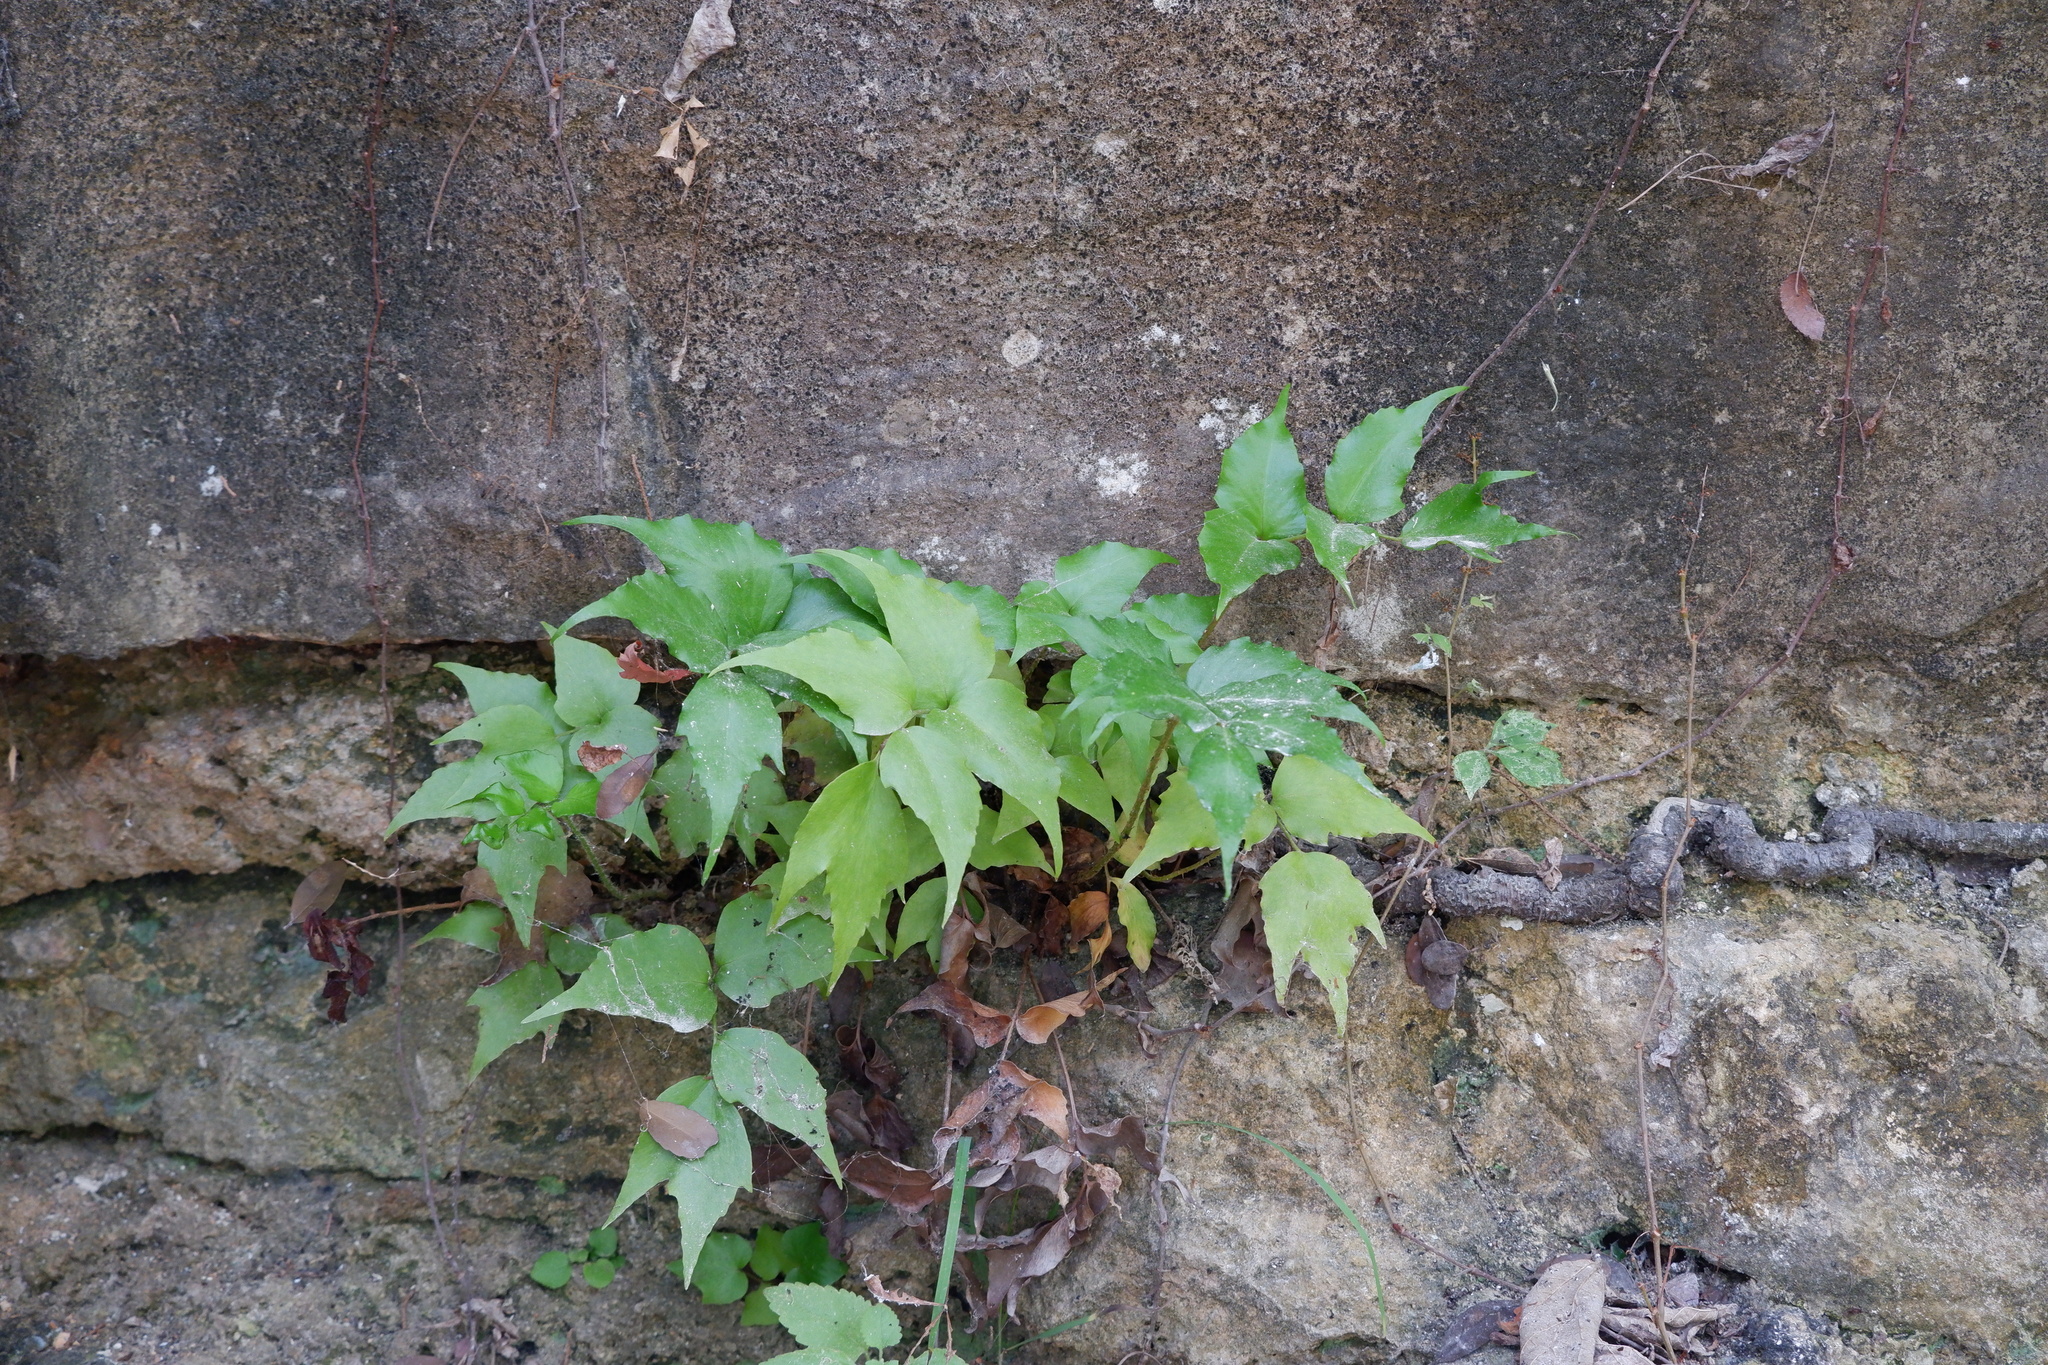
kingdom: Plantae
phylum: Tracheophyta
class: Polypodiopsida
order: Polypodiales
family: Dryopteridaceae
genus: Cyrtomium
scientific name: Cyrtomium falcatum
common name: House holly-fern
